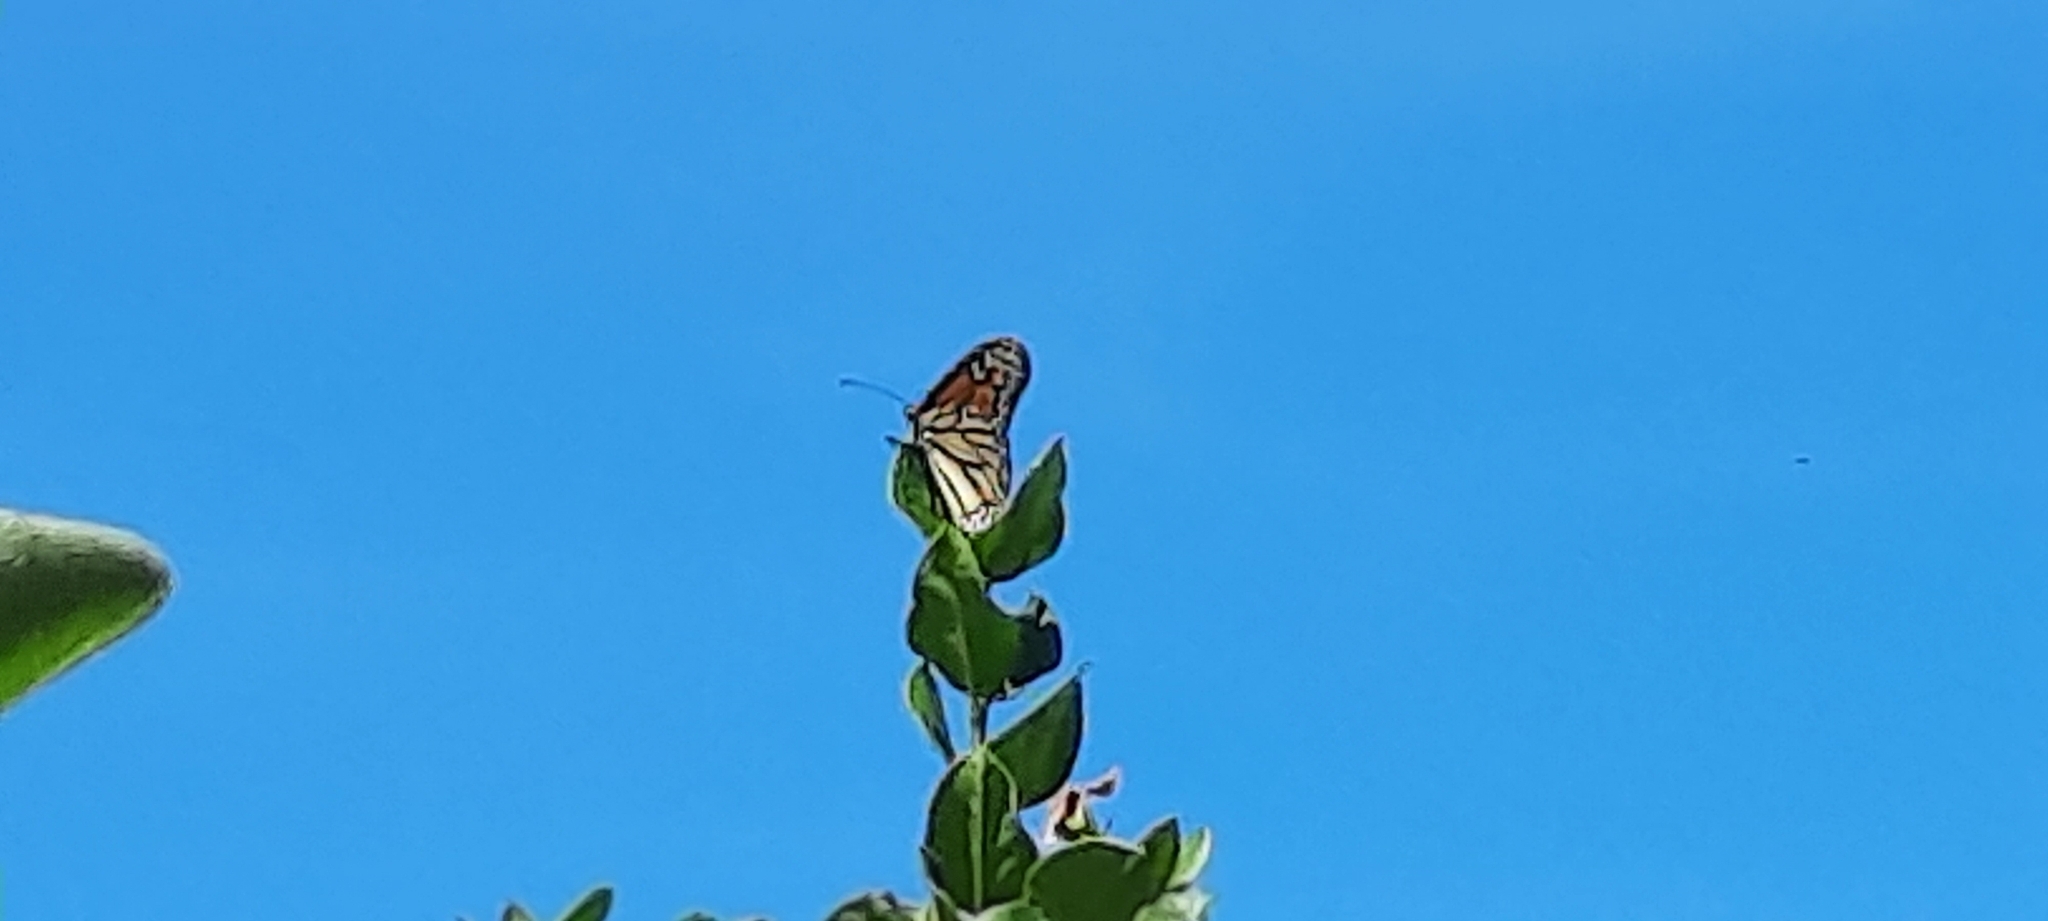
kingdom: Animalia
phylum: Arthropoda
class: Insecta
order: Lepidoptera
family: Nymphalidae
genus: Danaus
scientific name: Danaus plexippus
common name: Monarch
